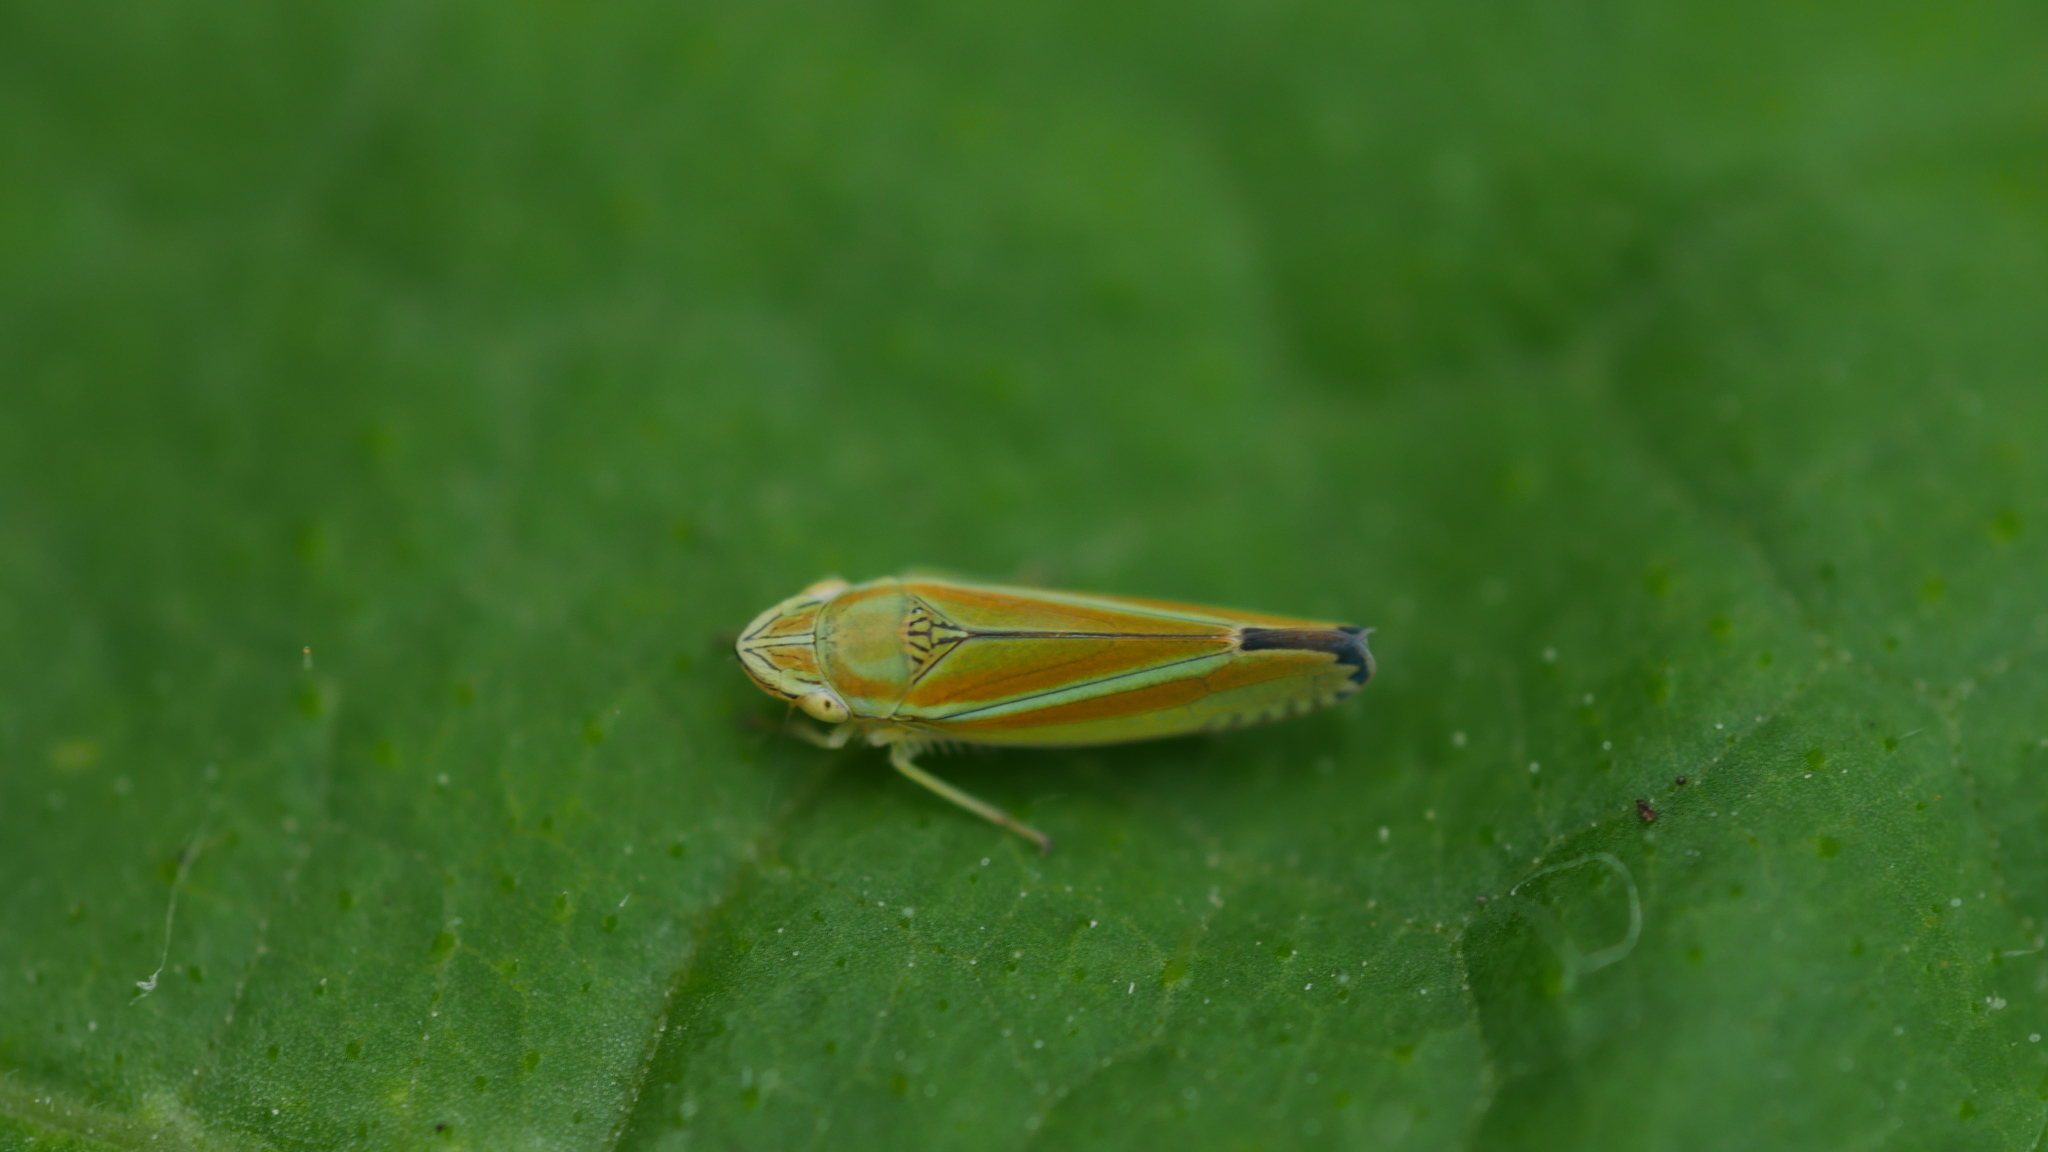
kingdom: Animalia
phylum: Arthropoda
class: Insecta
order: Hemiptera
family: Cicadellidae
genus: Graphocephala
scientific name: Graphocephala versuta
